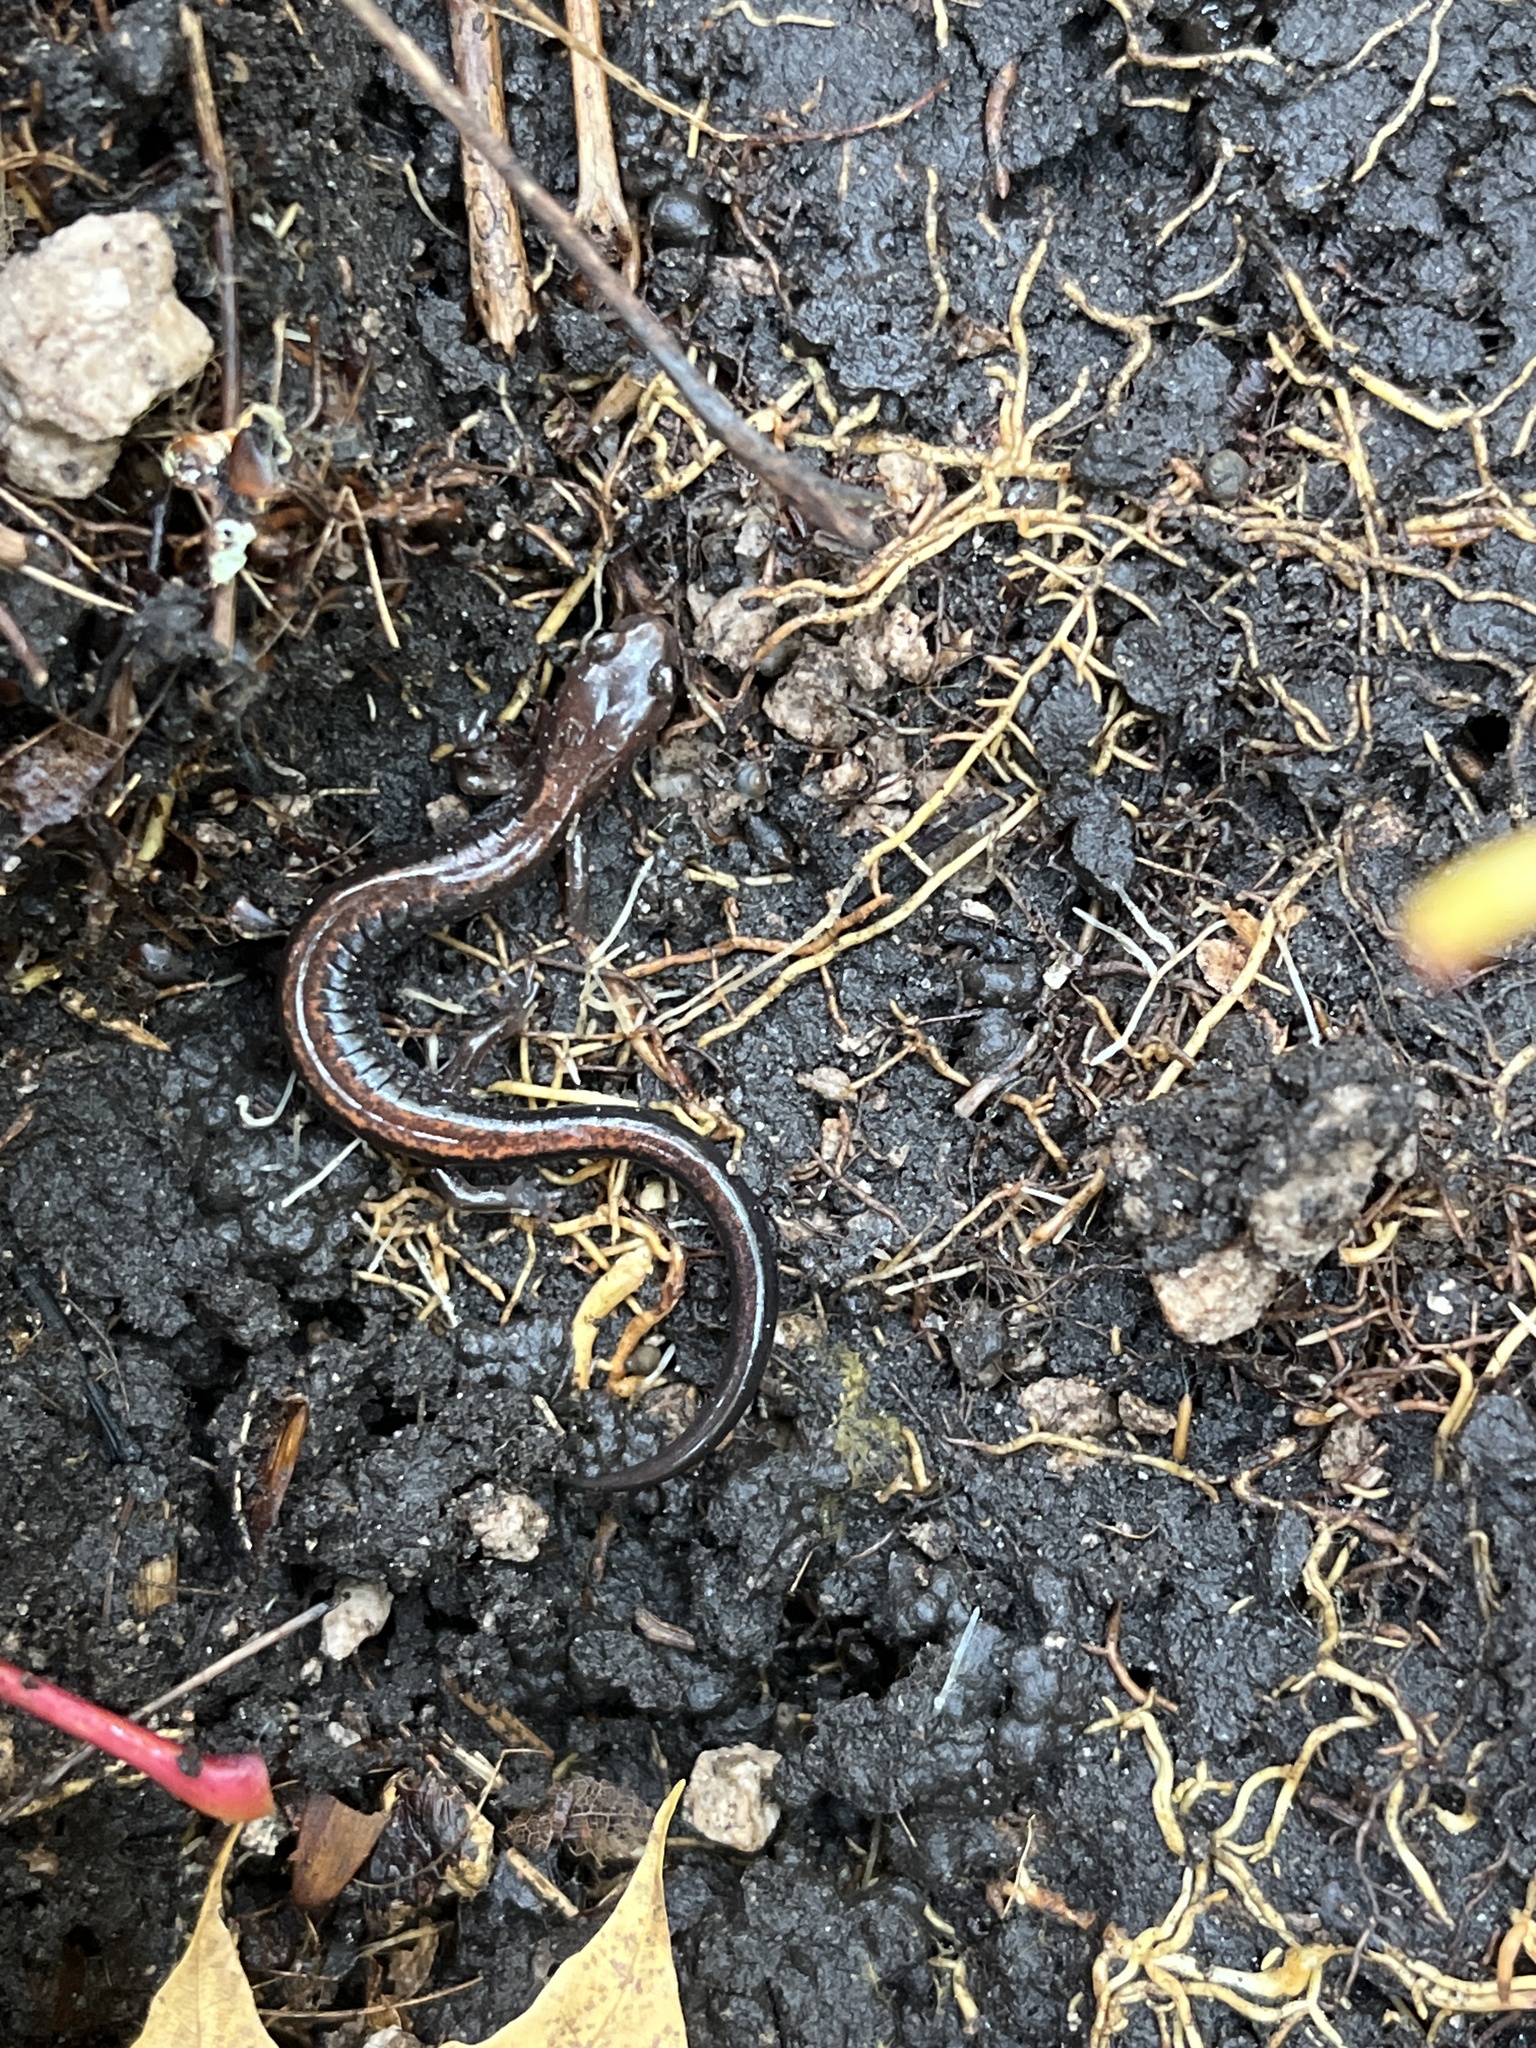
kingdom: Animalia
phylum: Chordata
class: Amphibia
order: Caudata
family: Plethodontidae
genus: Plethodon
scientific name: Plethodon cinereus
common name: Redback salamander
